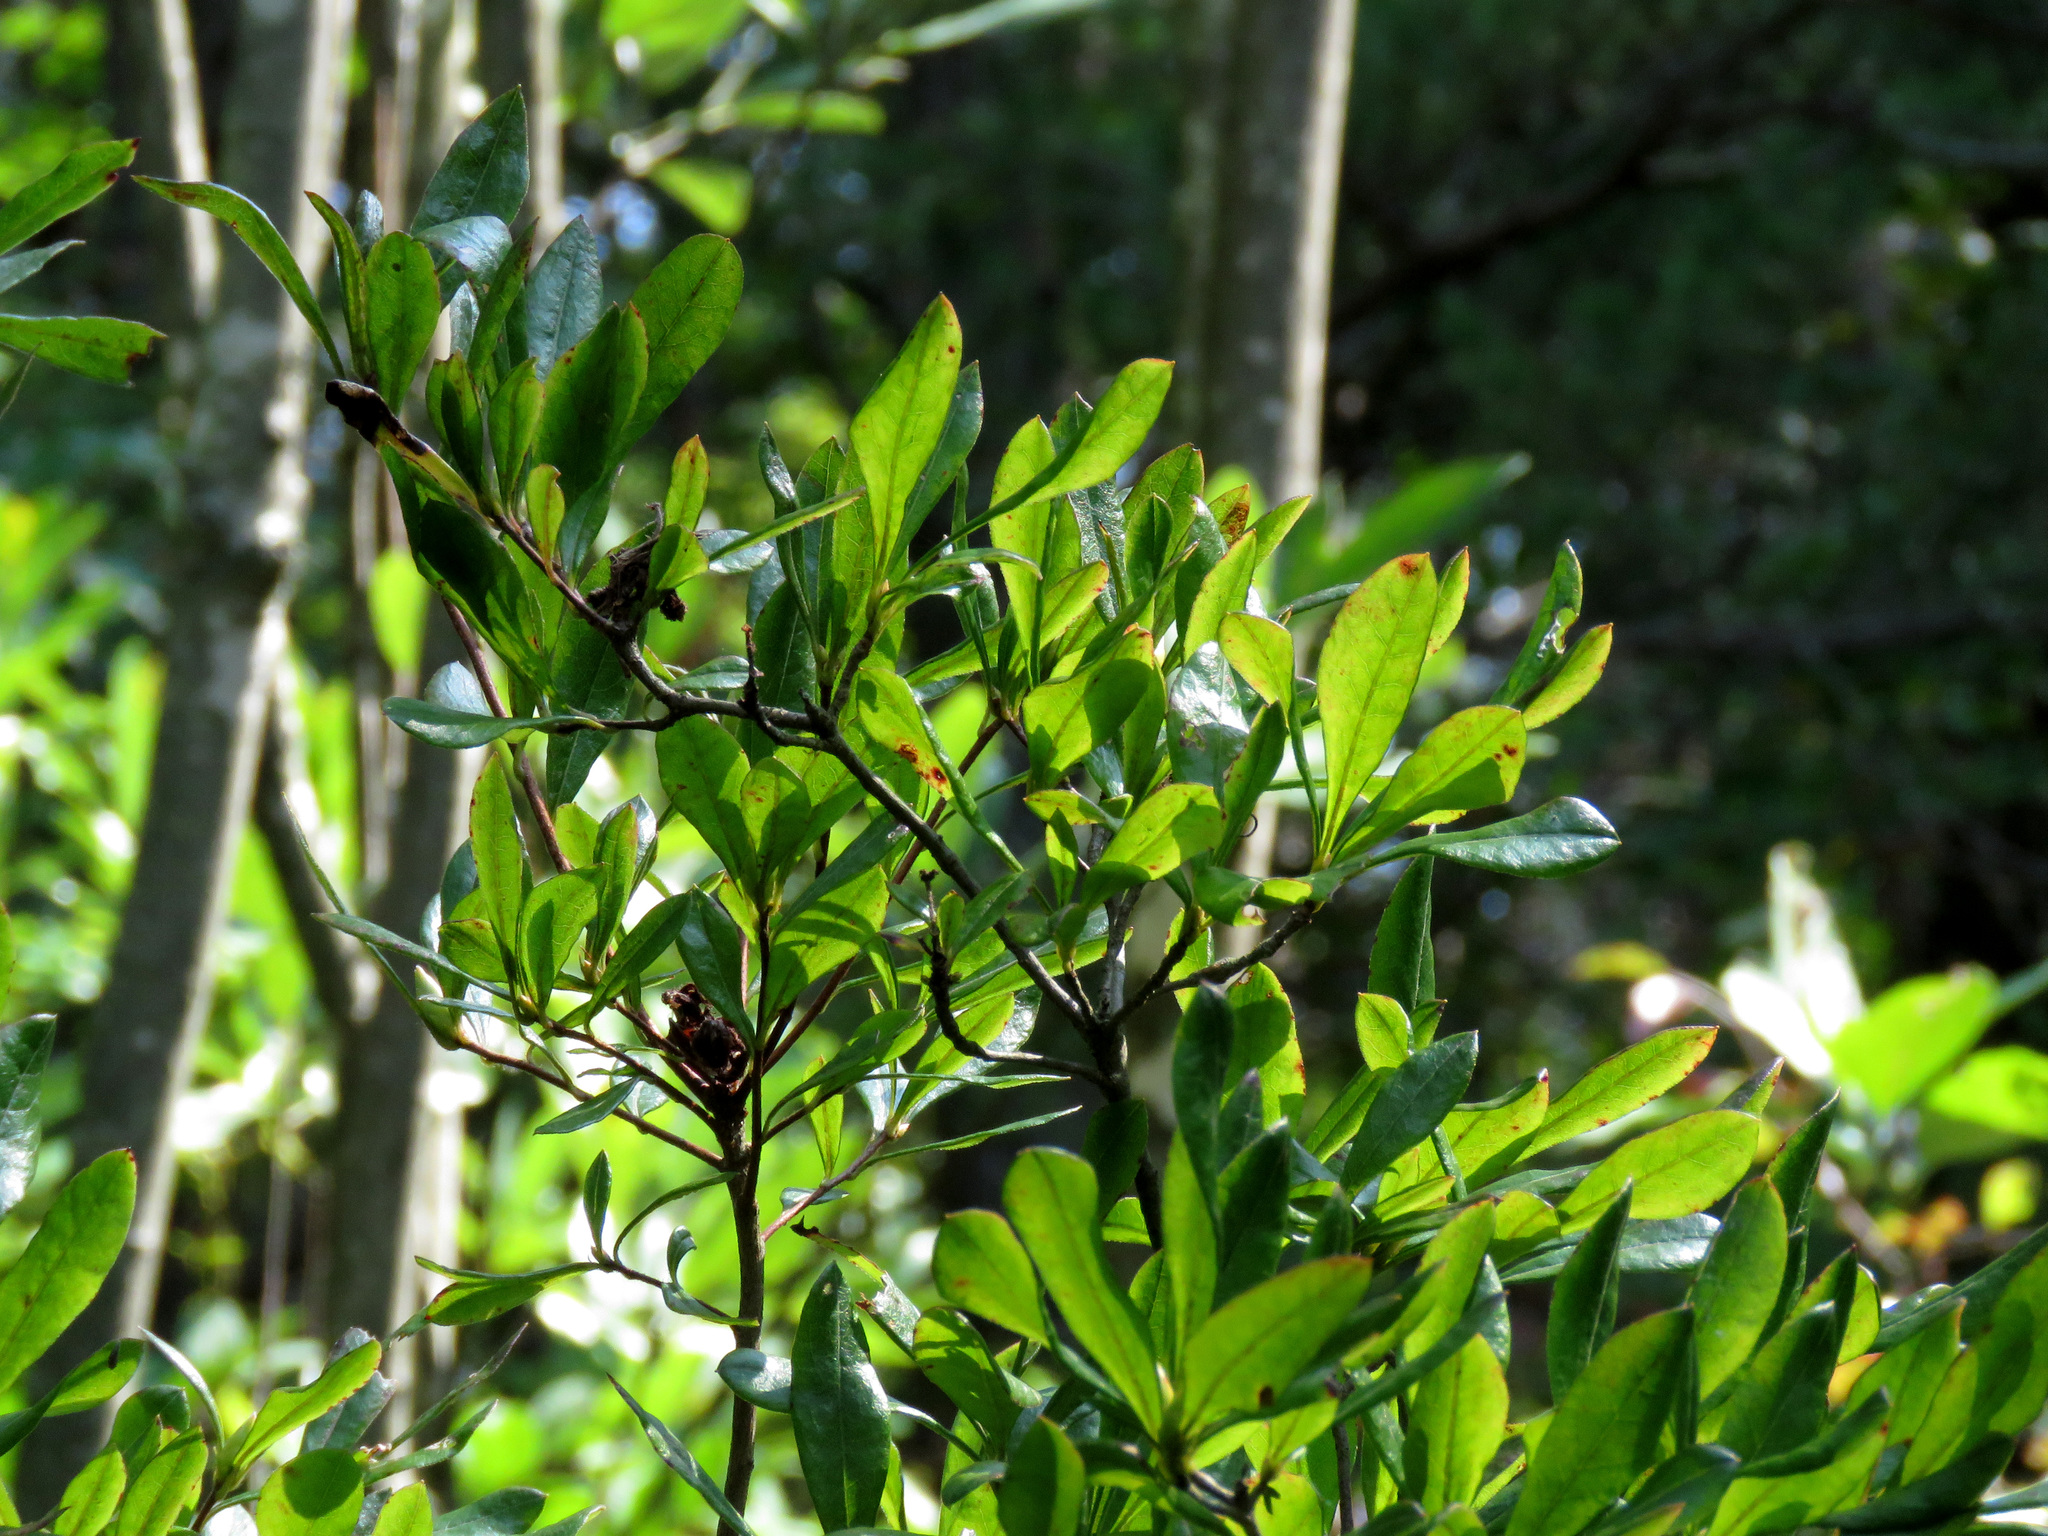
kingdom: Plantae
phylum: Tracheophyta
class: Magnoliopsida
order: Ericales
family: Ericaceae
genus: Rhododendron
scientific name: Rhododendron viscosum
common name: Clammy azalea
